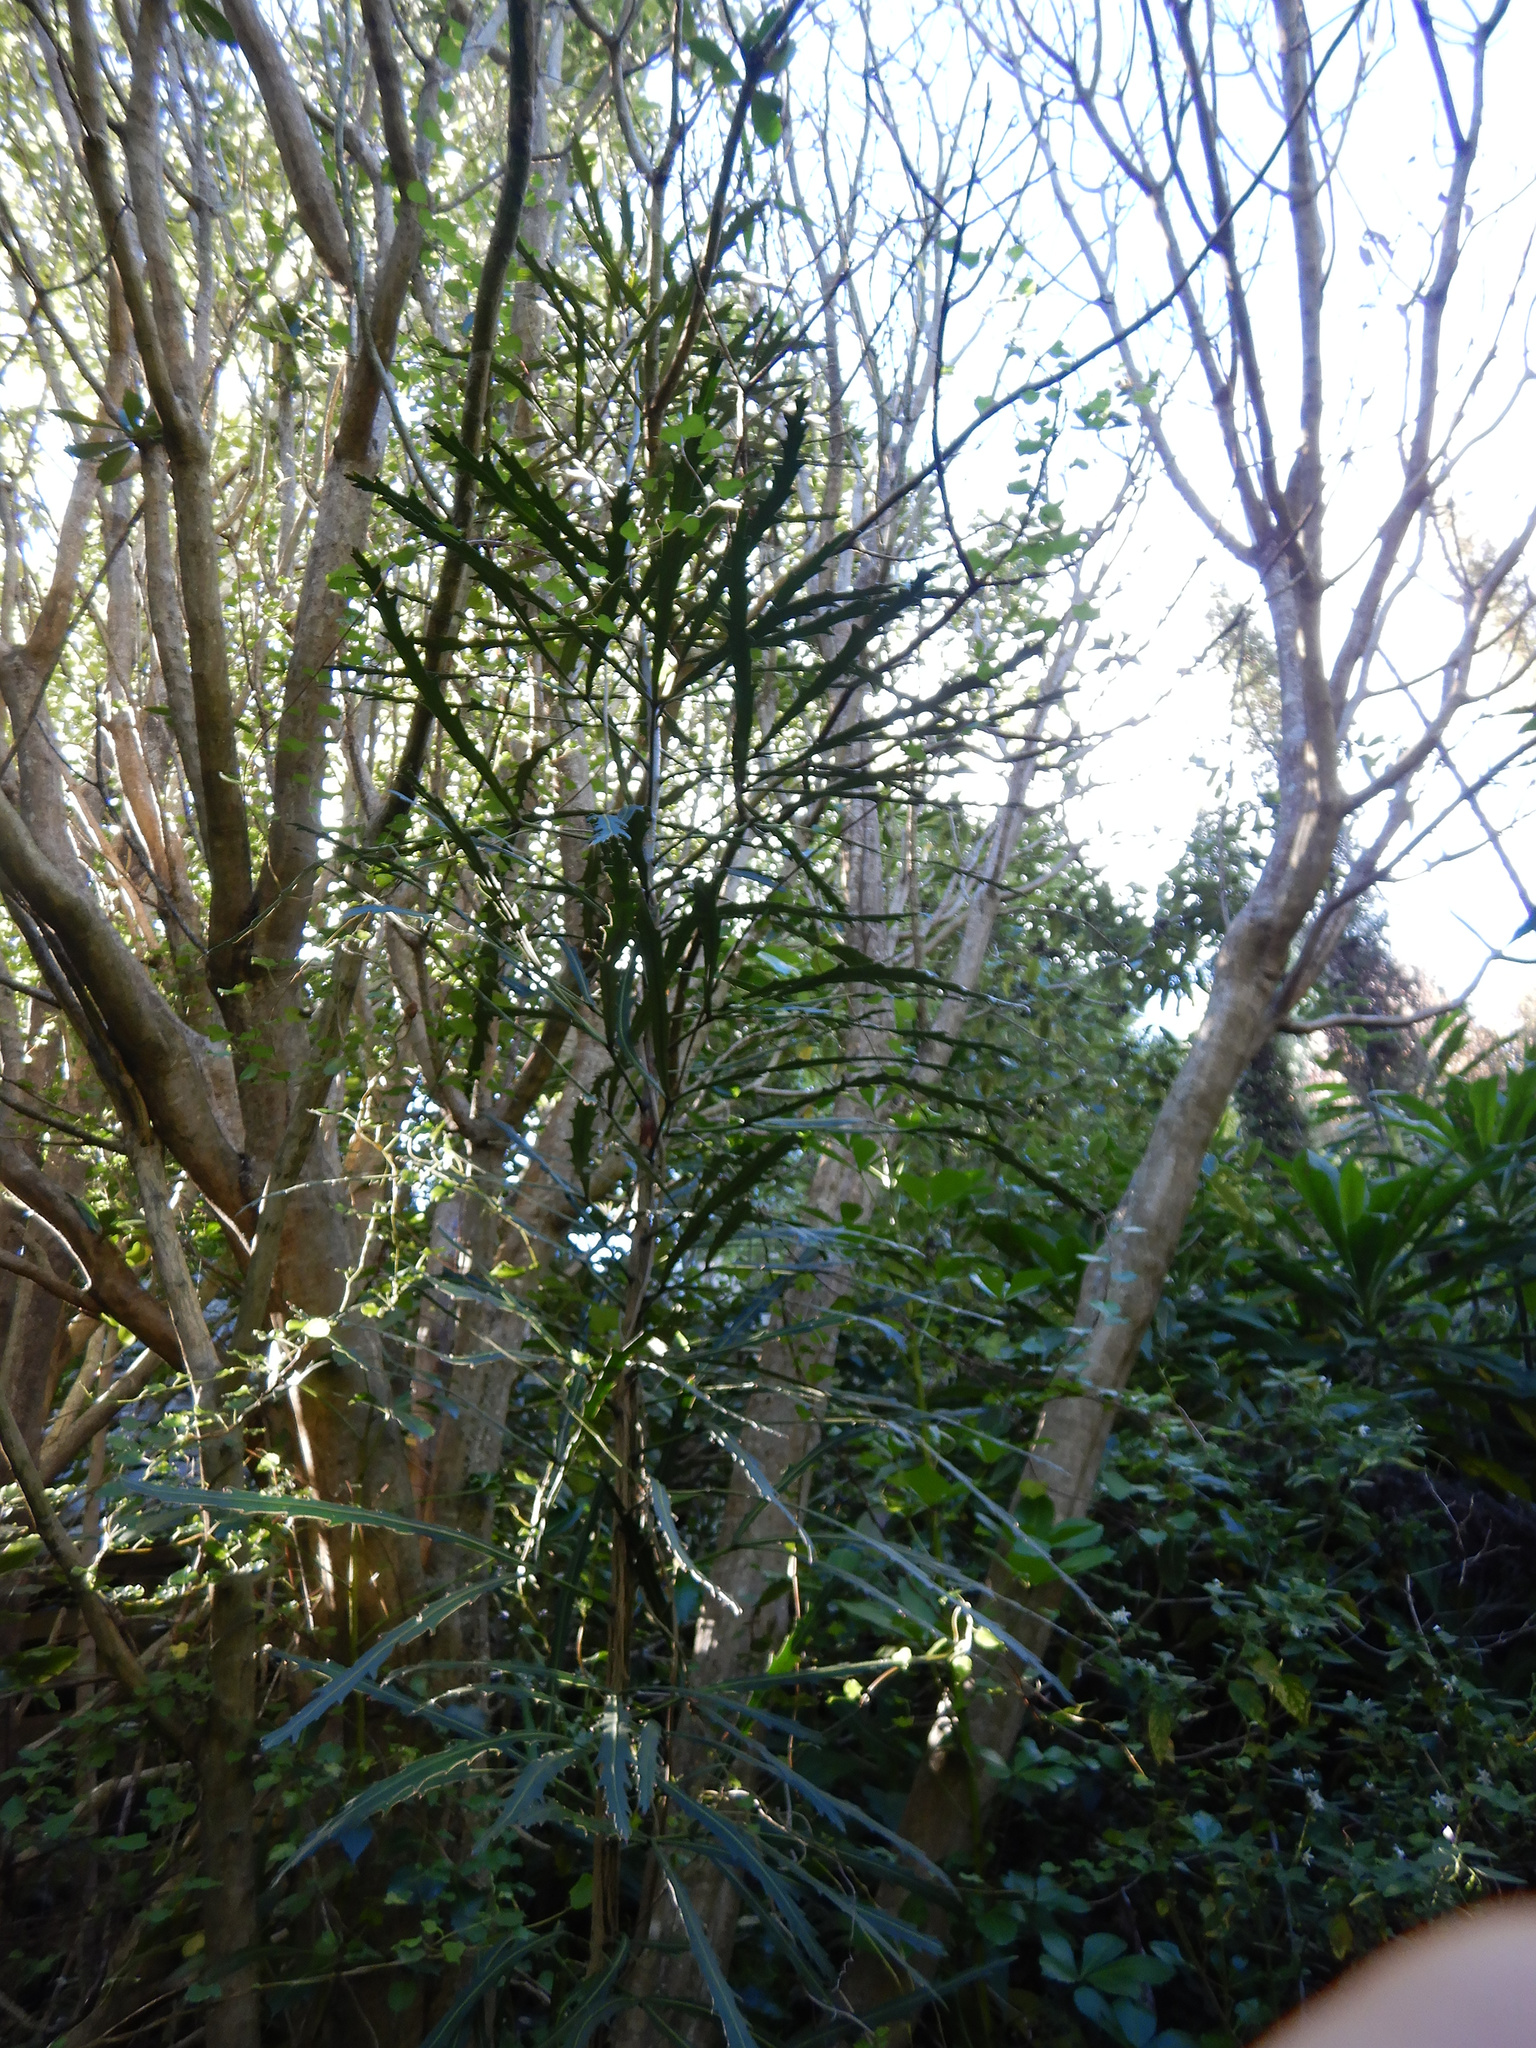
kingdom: Plantae
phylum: Tracheophyta
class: Magnoliopsida
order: Apiales
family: Araliaceae
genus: Pseudopanax
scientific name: Pseudopanax
